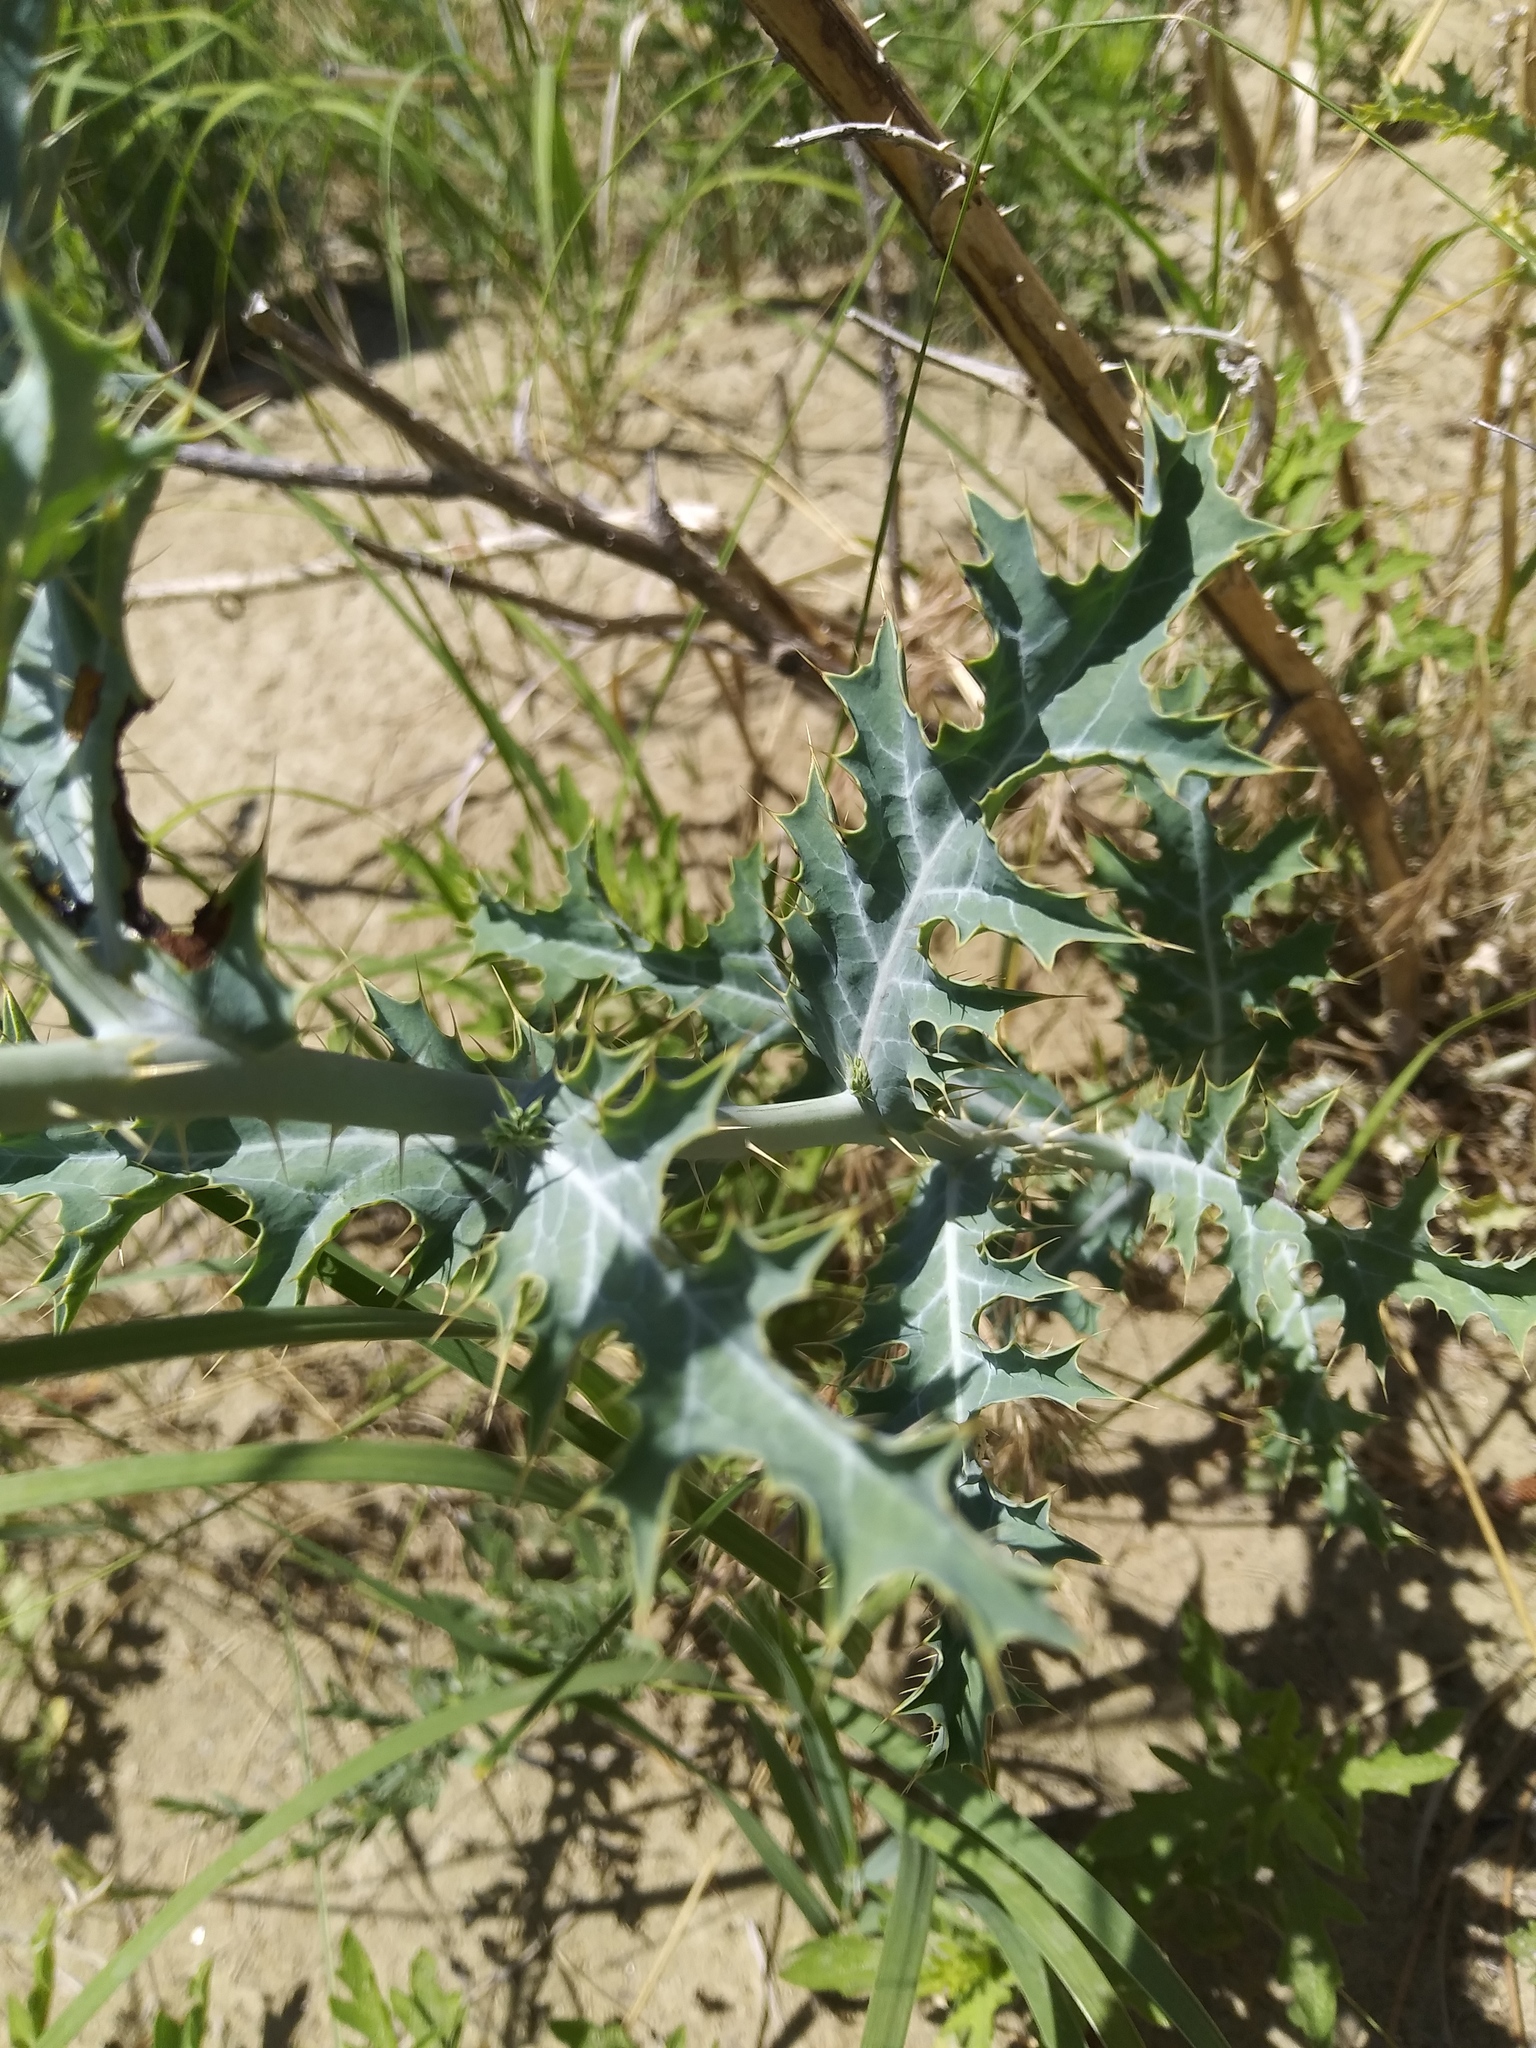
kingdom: Plantae
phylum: Tracheophyta
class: Magnoliopsida
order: Ranunculales
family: Papaveraceae
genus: Argemone
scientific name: Argemone polyanthemos
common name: Plains prickly-poppy
